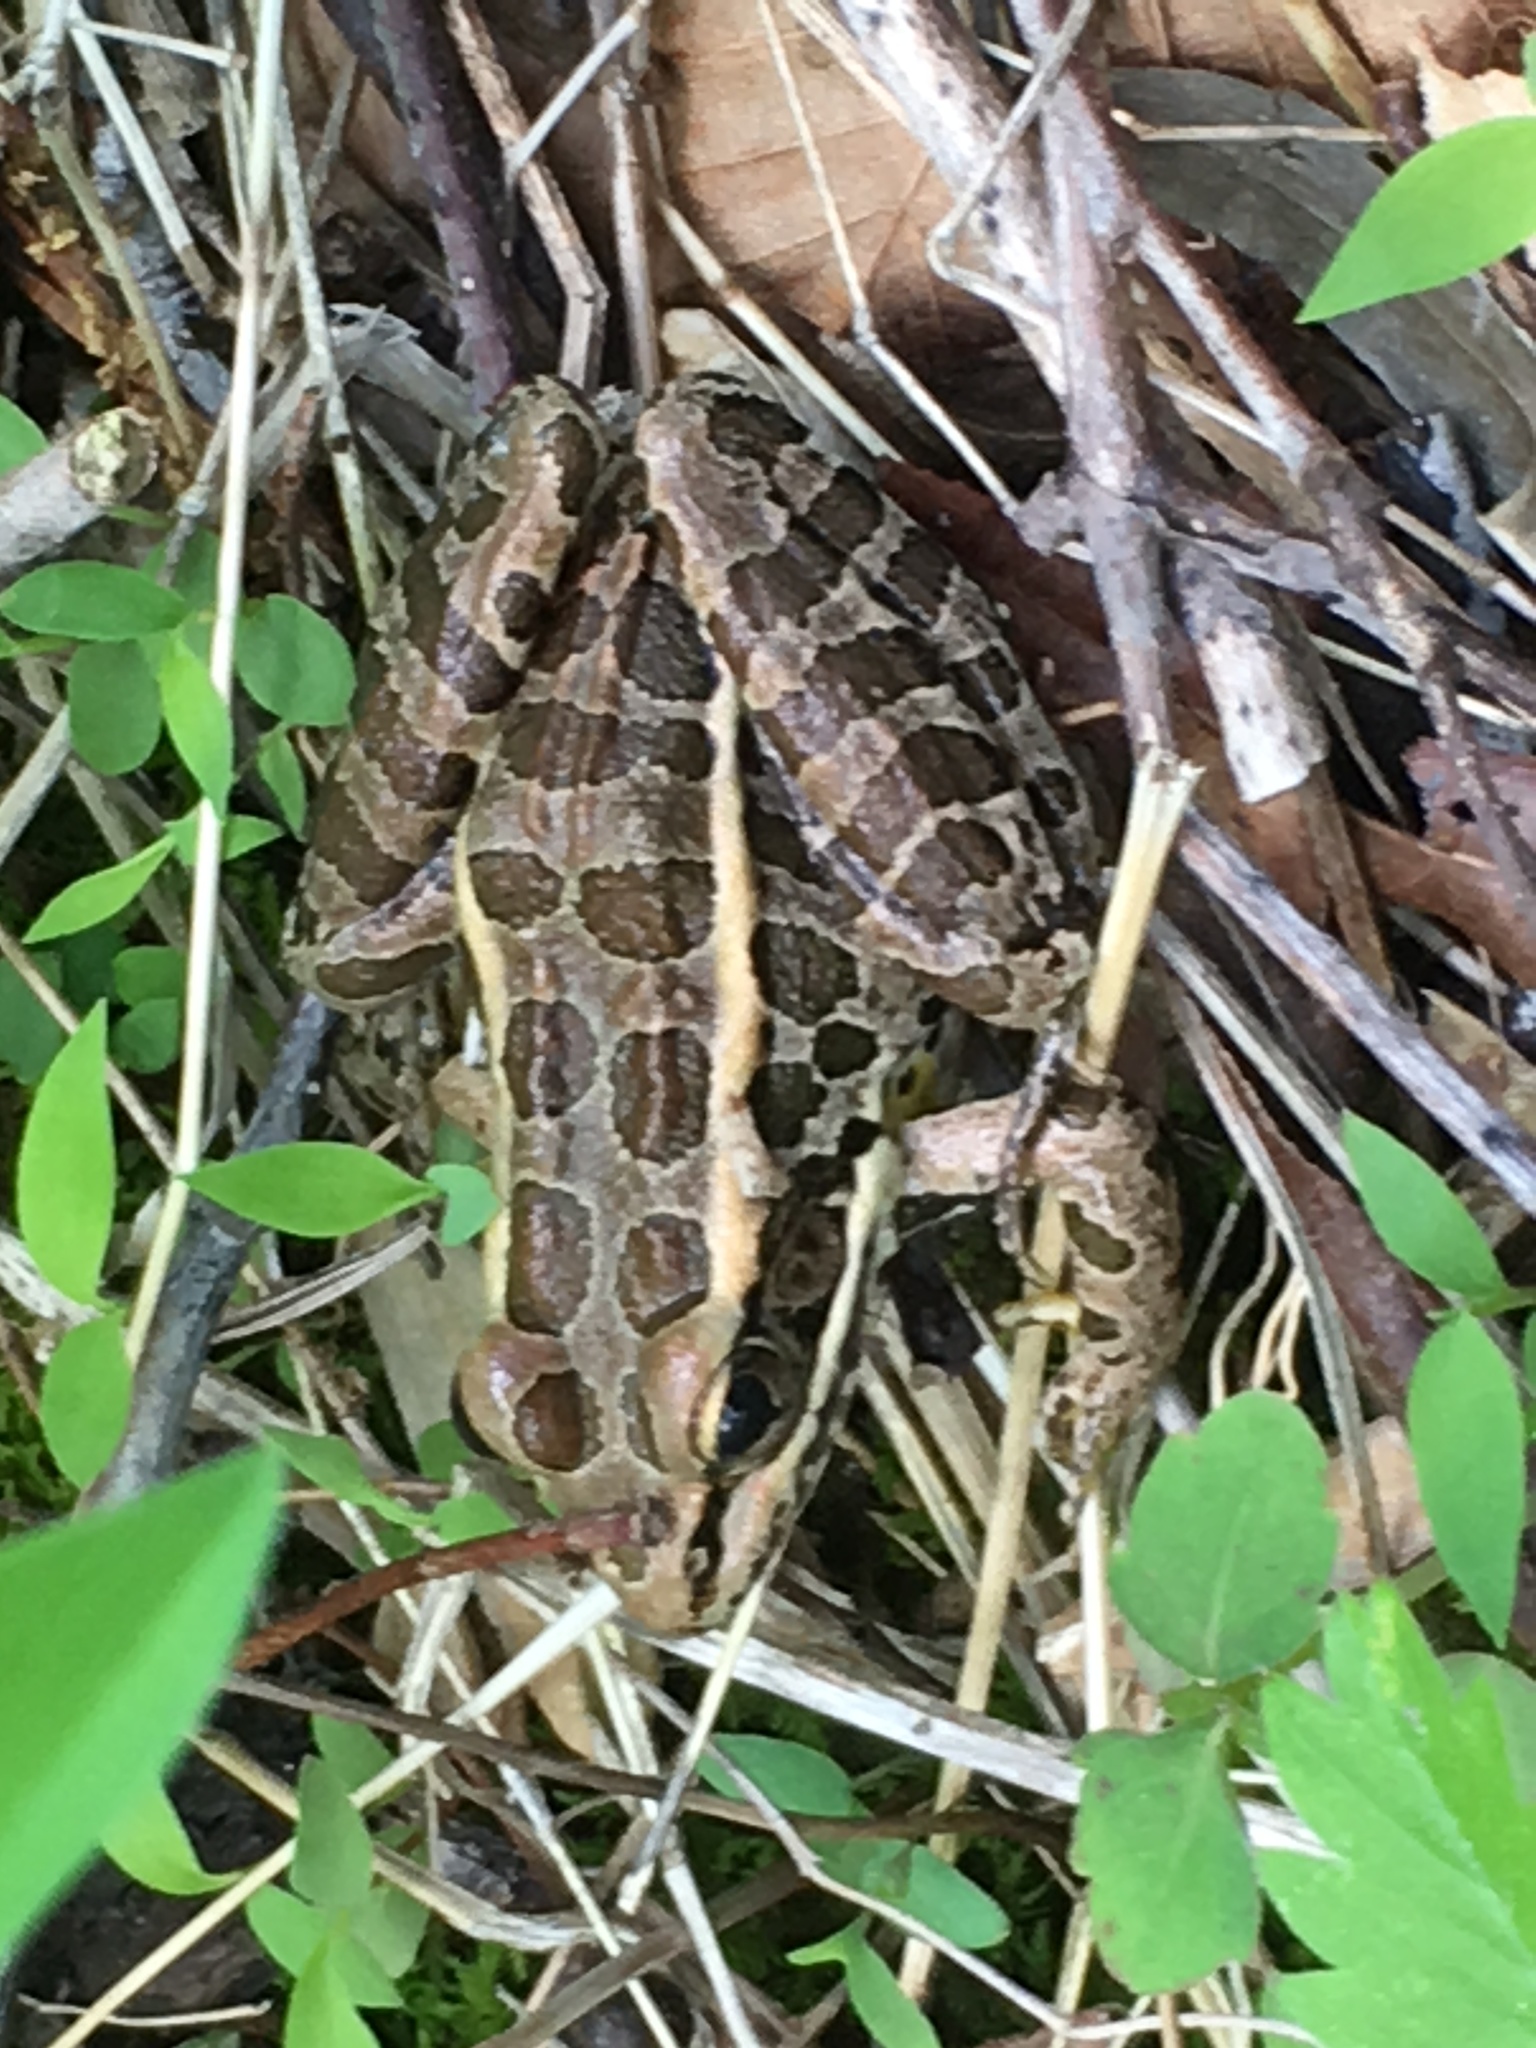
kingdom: Animalia
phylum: Chordata
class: Amphibia
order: Anura
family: Ranidae
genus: Lithobates
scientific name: Lithobates palustris
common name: Pickerel frog
